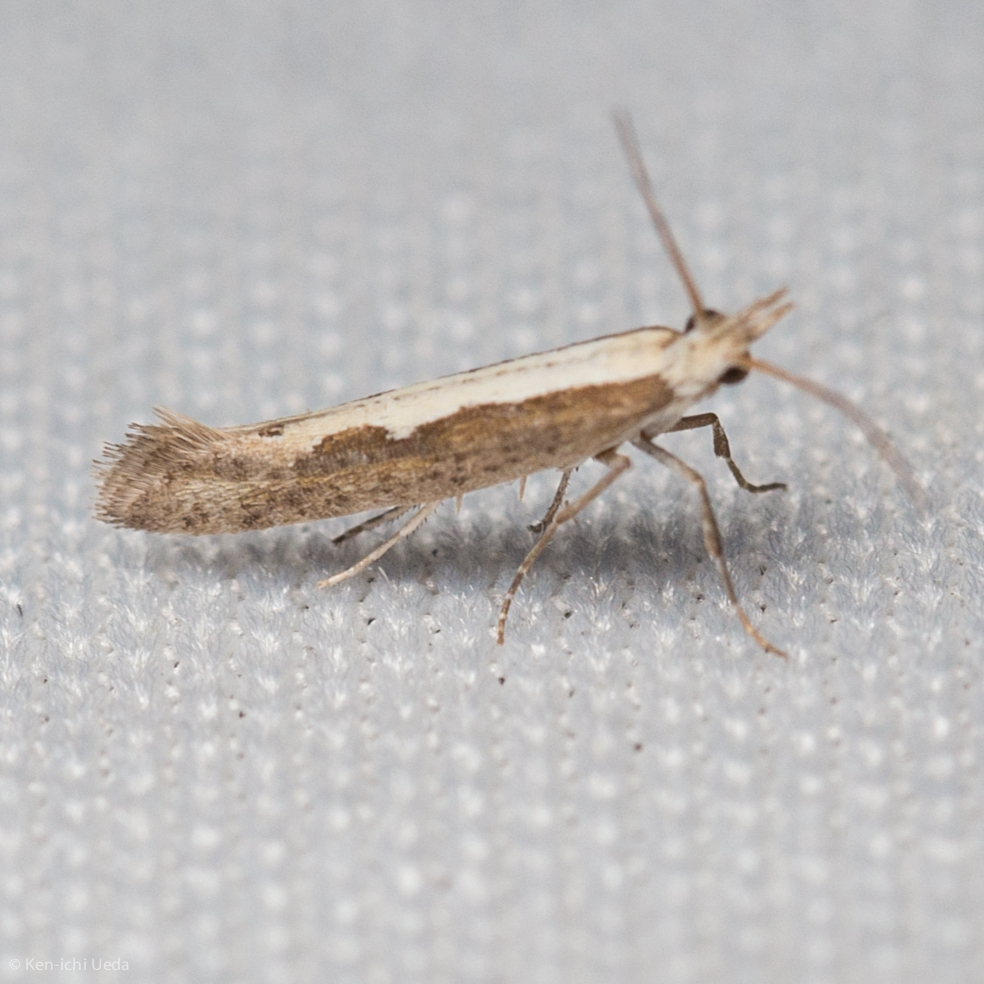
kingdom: Animalia
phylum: Arthropoda
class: Insecta
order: Lepidoptera
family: Plutellidae
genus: Plutella
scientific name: Plutella xylostella
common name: Diamond-back moth
